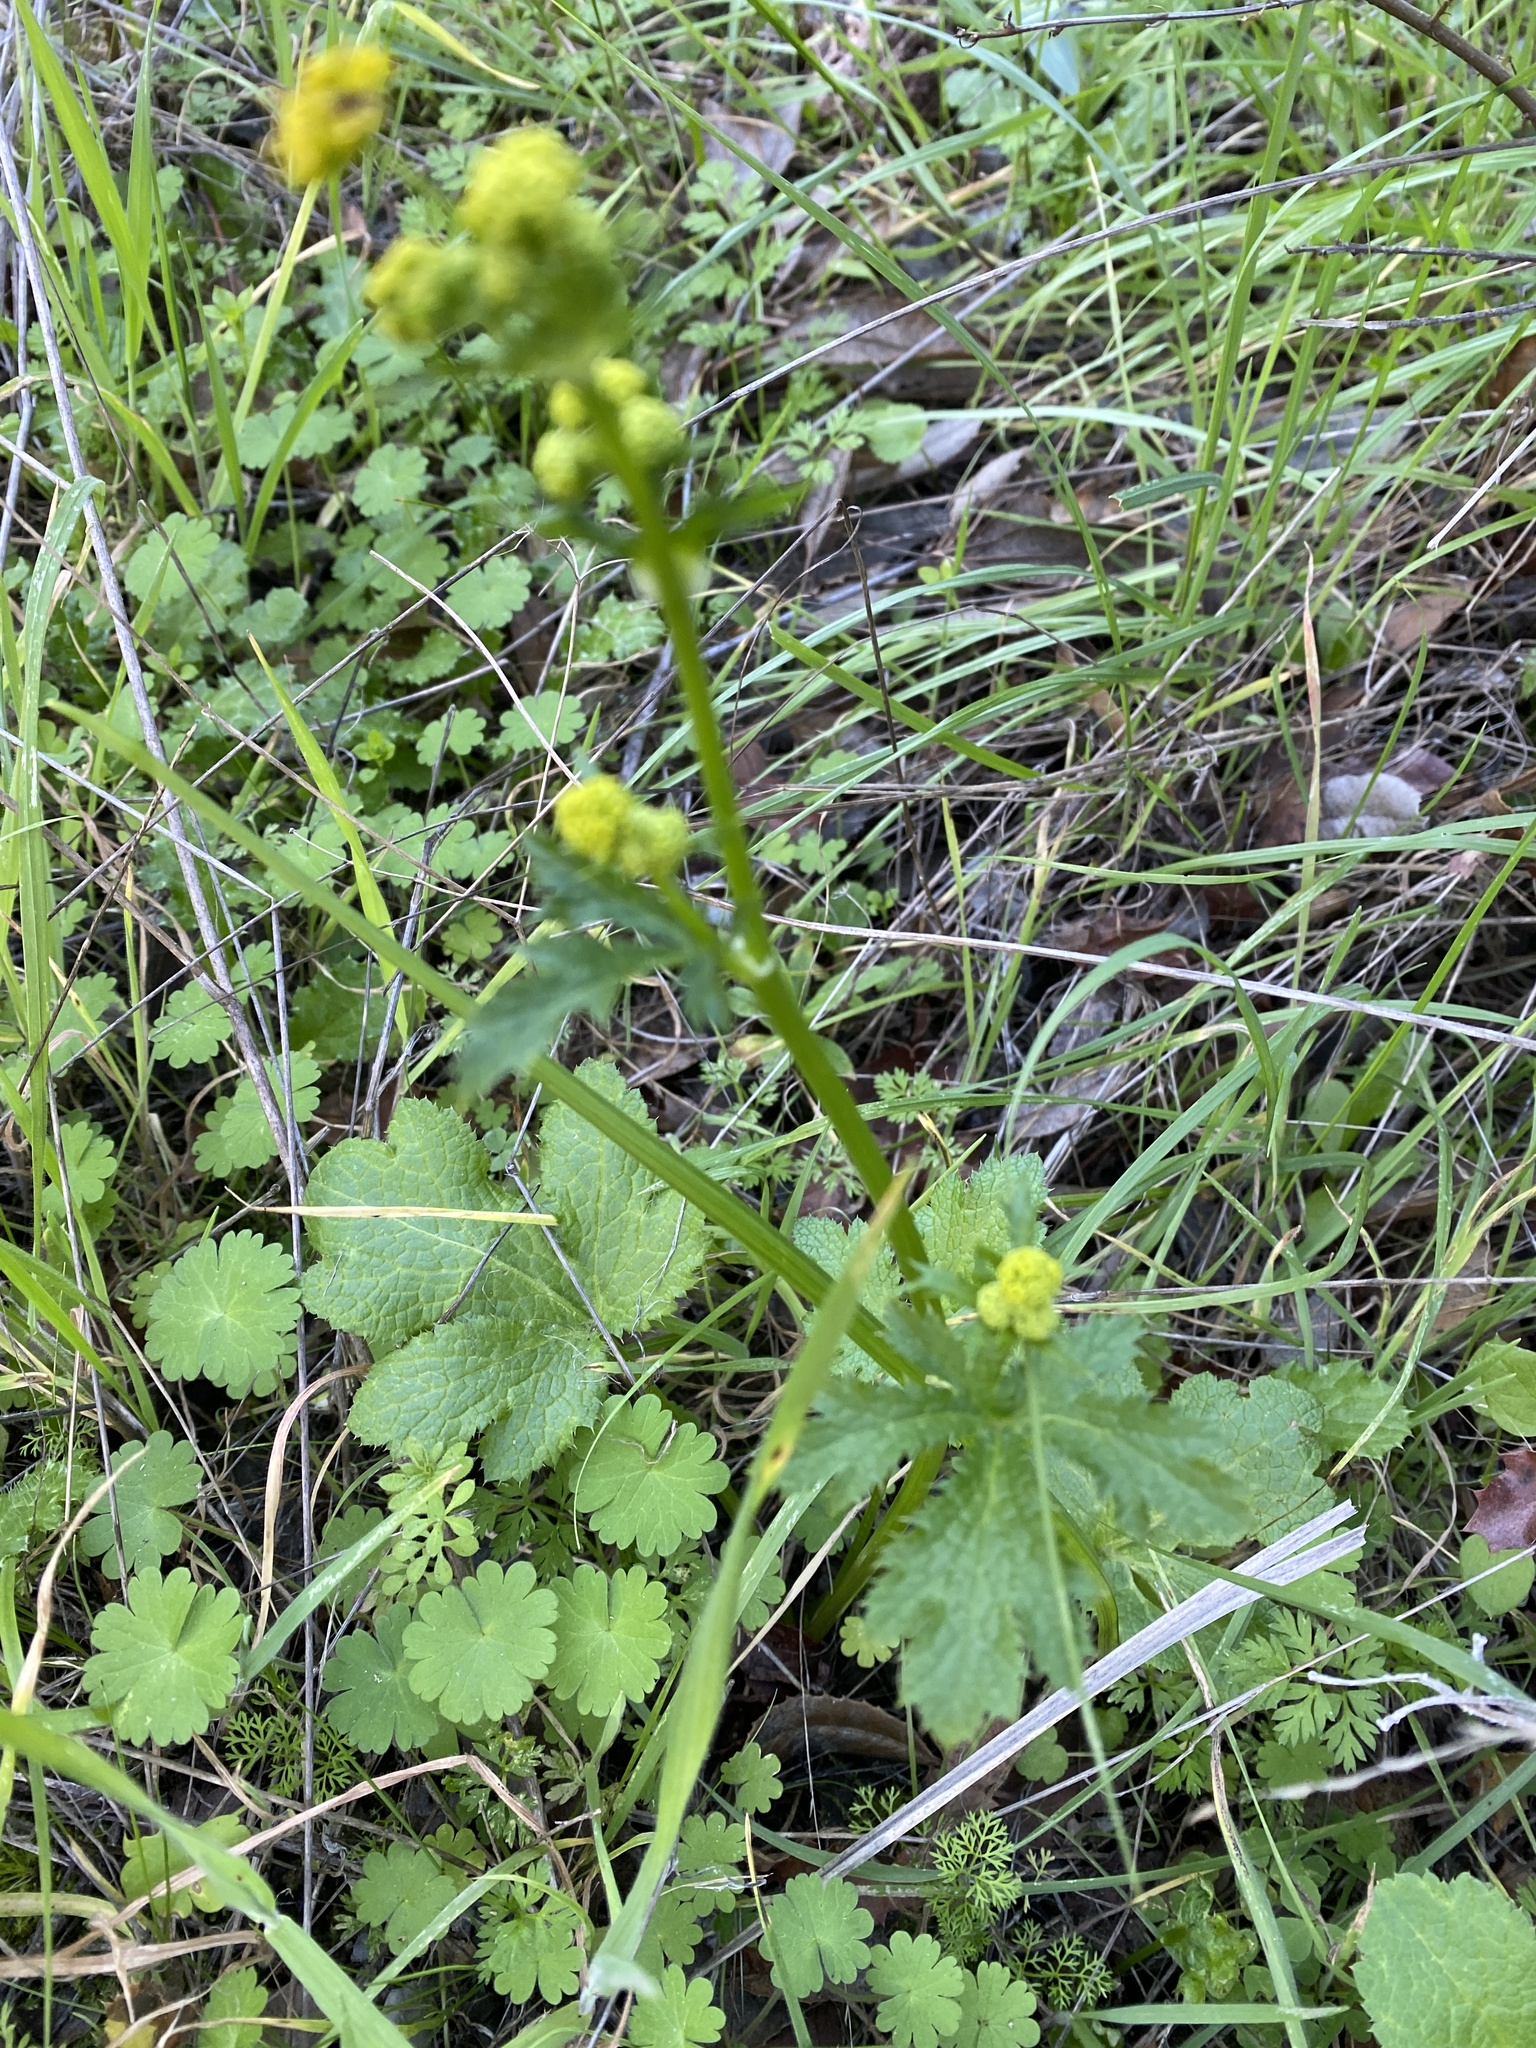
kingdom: Plantae
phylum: Tracheophyta
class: Magnoliopsida
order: Apiales
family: Apiaceae
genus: Sanicula
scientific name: Sanicula crassicaulis
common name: Western snakeroot
